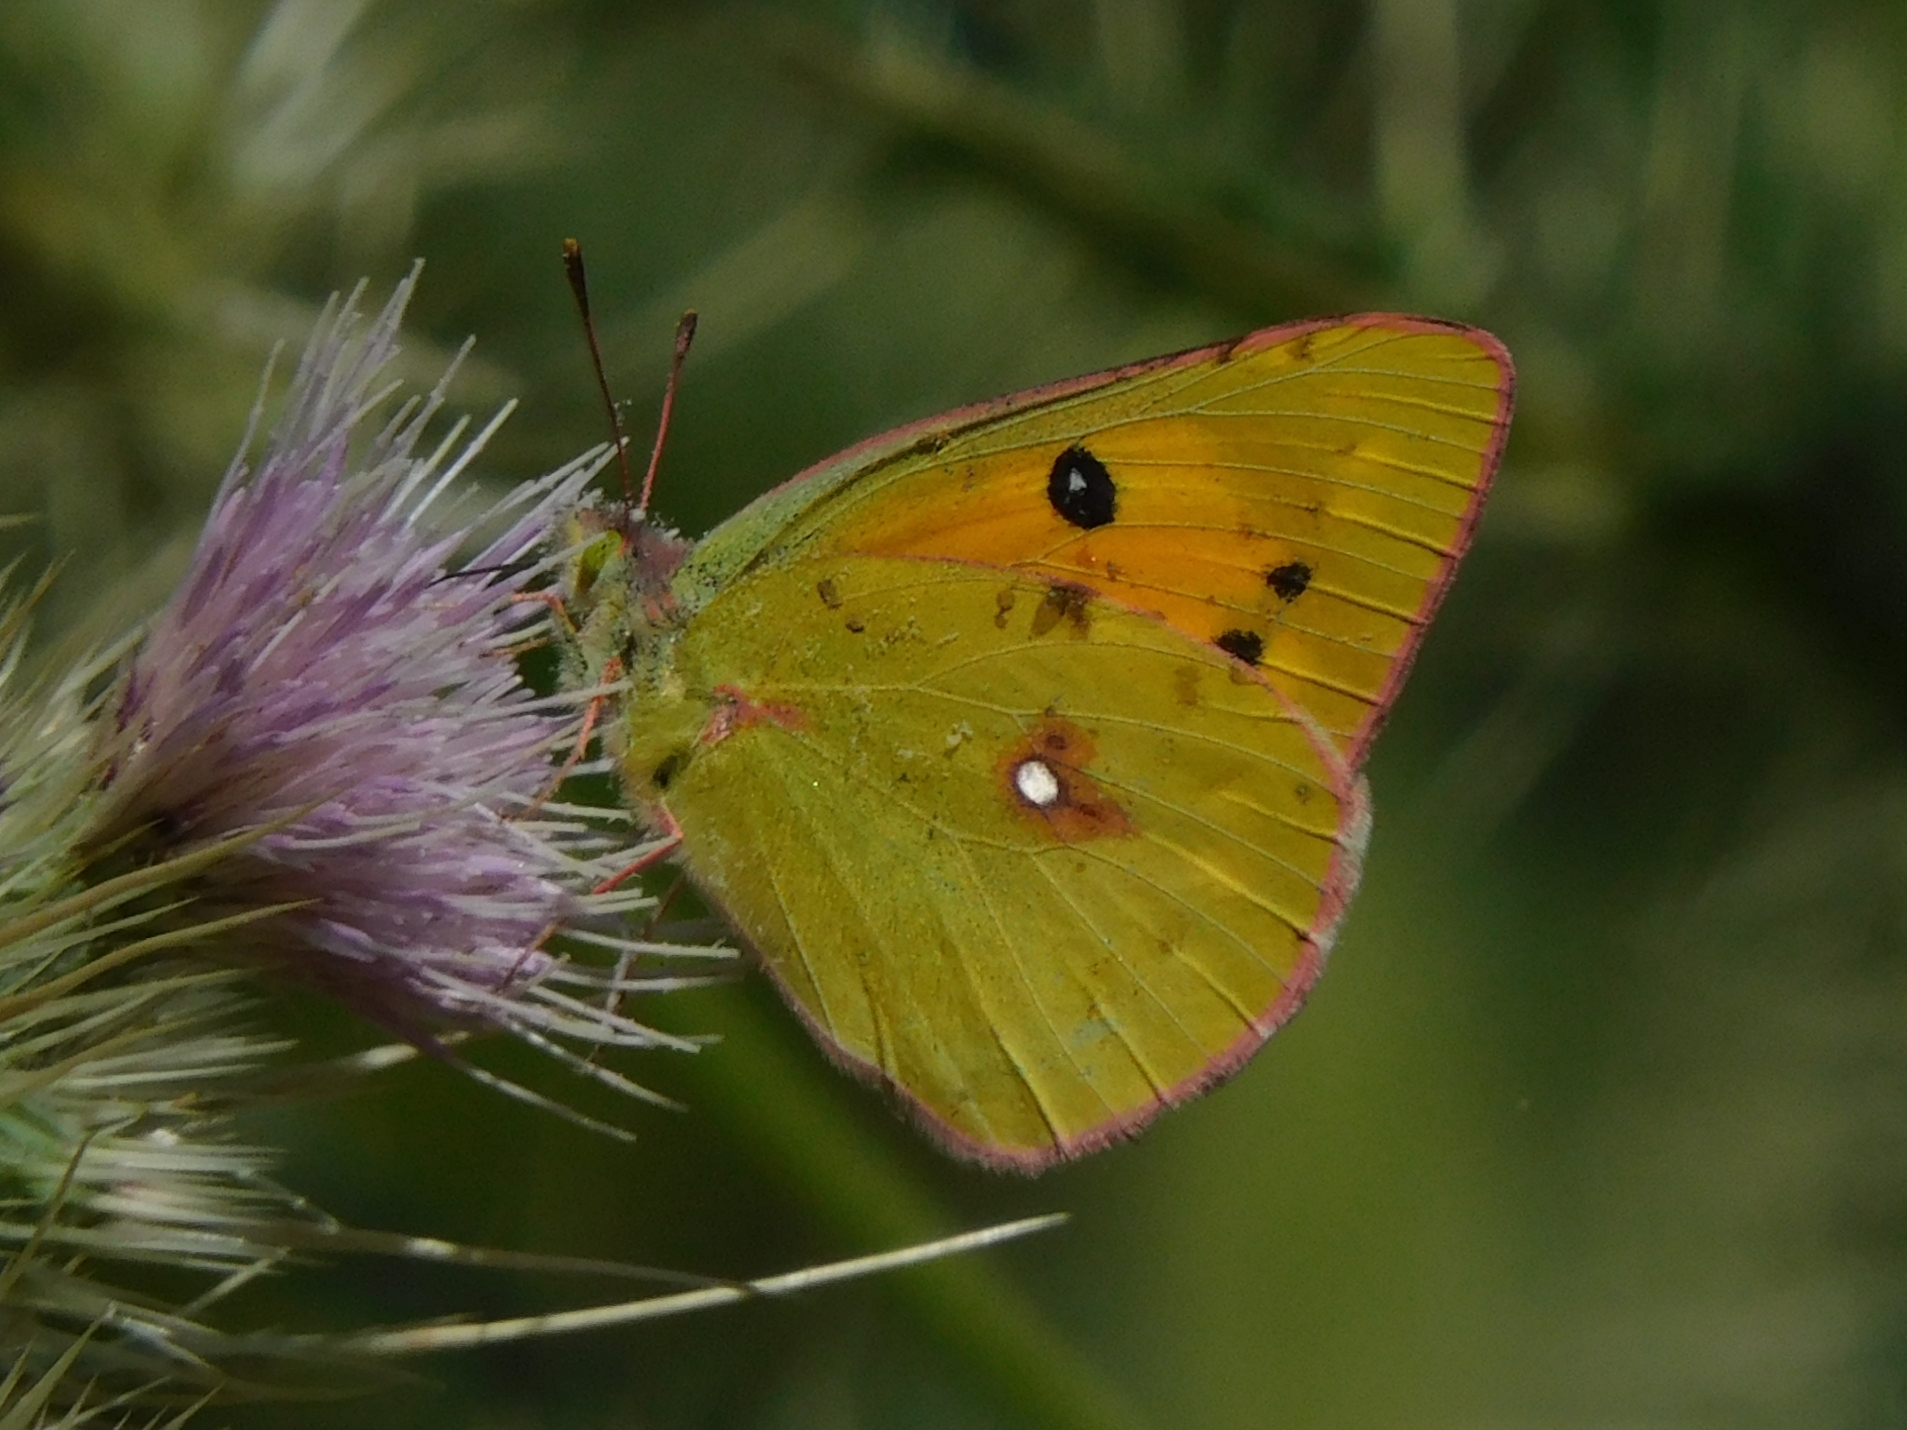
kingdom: Animalia
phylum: Arthropoda
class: Insecta
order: Lepidoptera
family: Pieridae
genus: Colias
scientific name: Colias fieldii
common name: Dark clouded yellow
